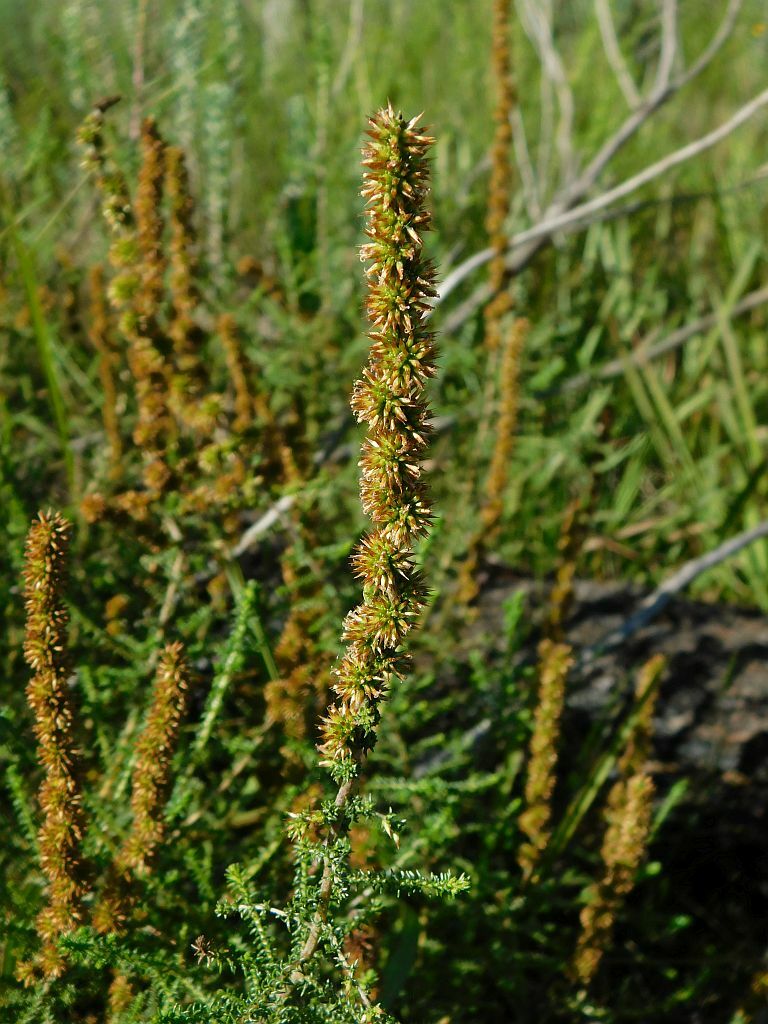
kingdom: Plantae
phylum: Tracheophyta
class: Magnoliopsida
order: Asterales
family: Asteraceae
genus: Seriphium
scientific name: Seriphium cinereum
